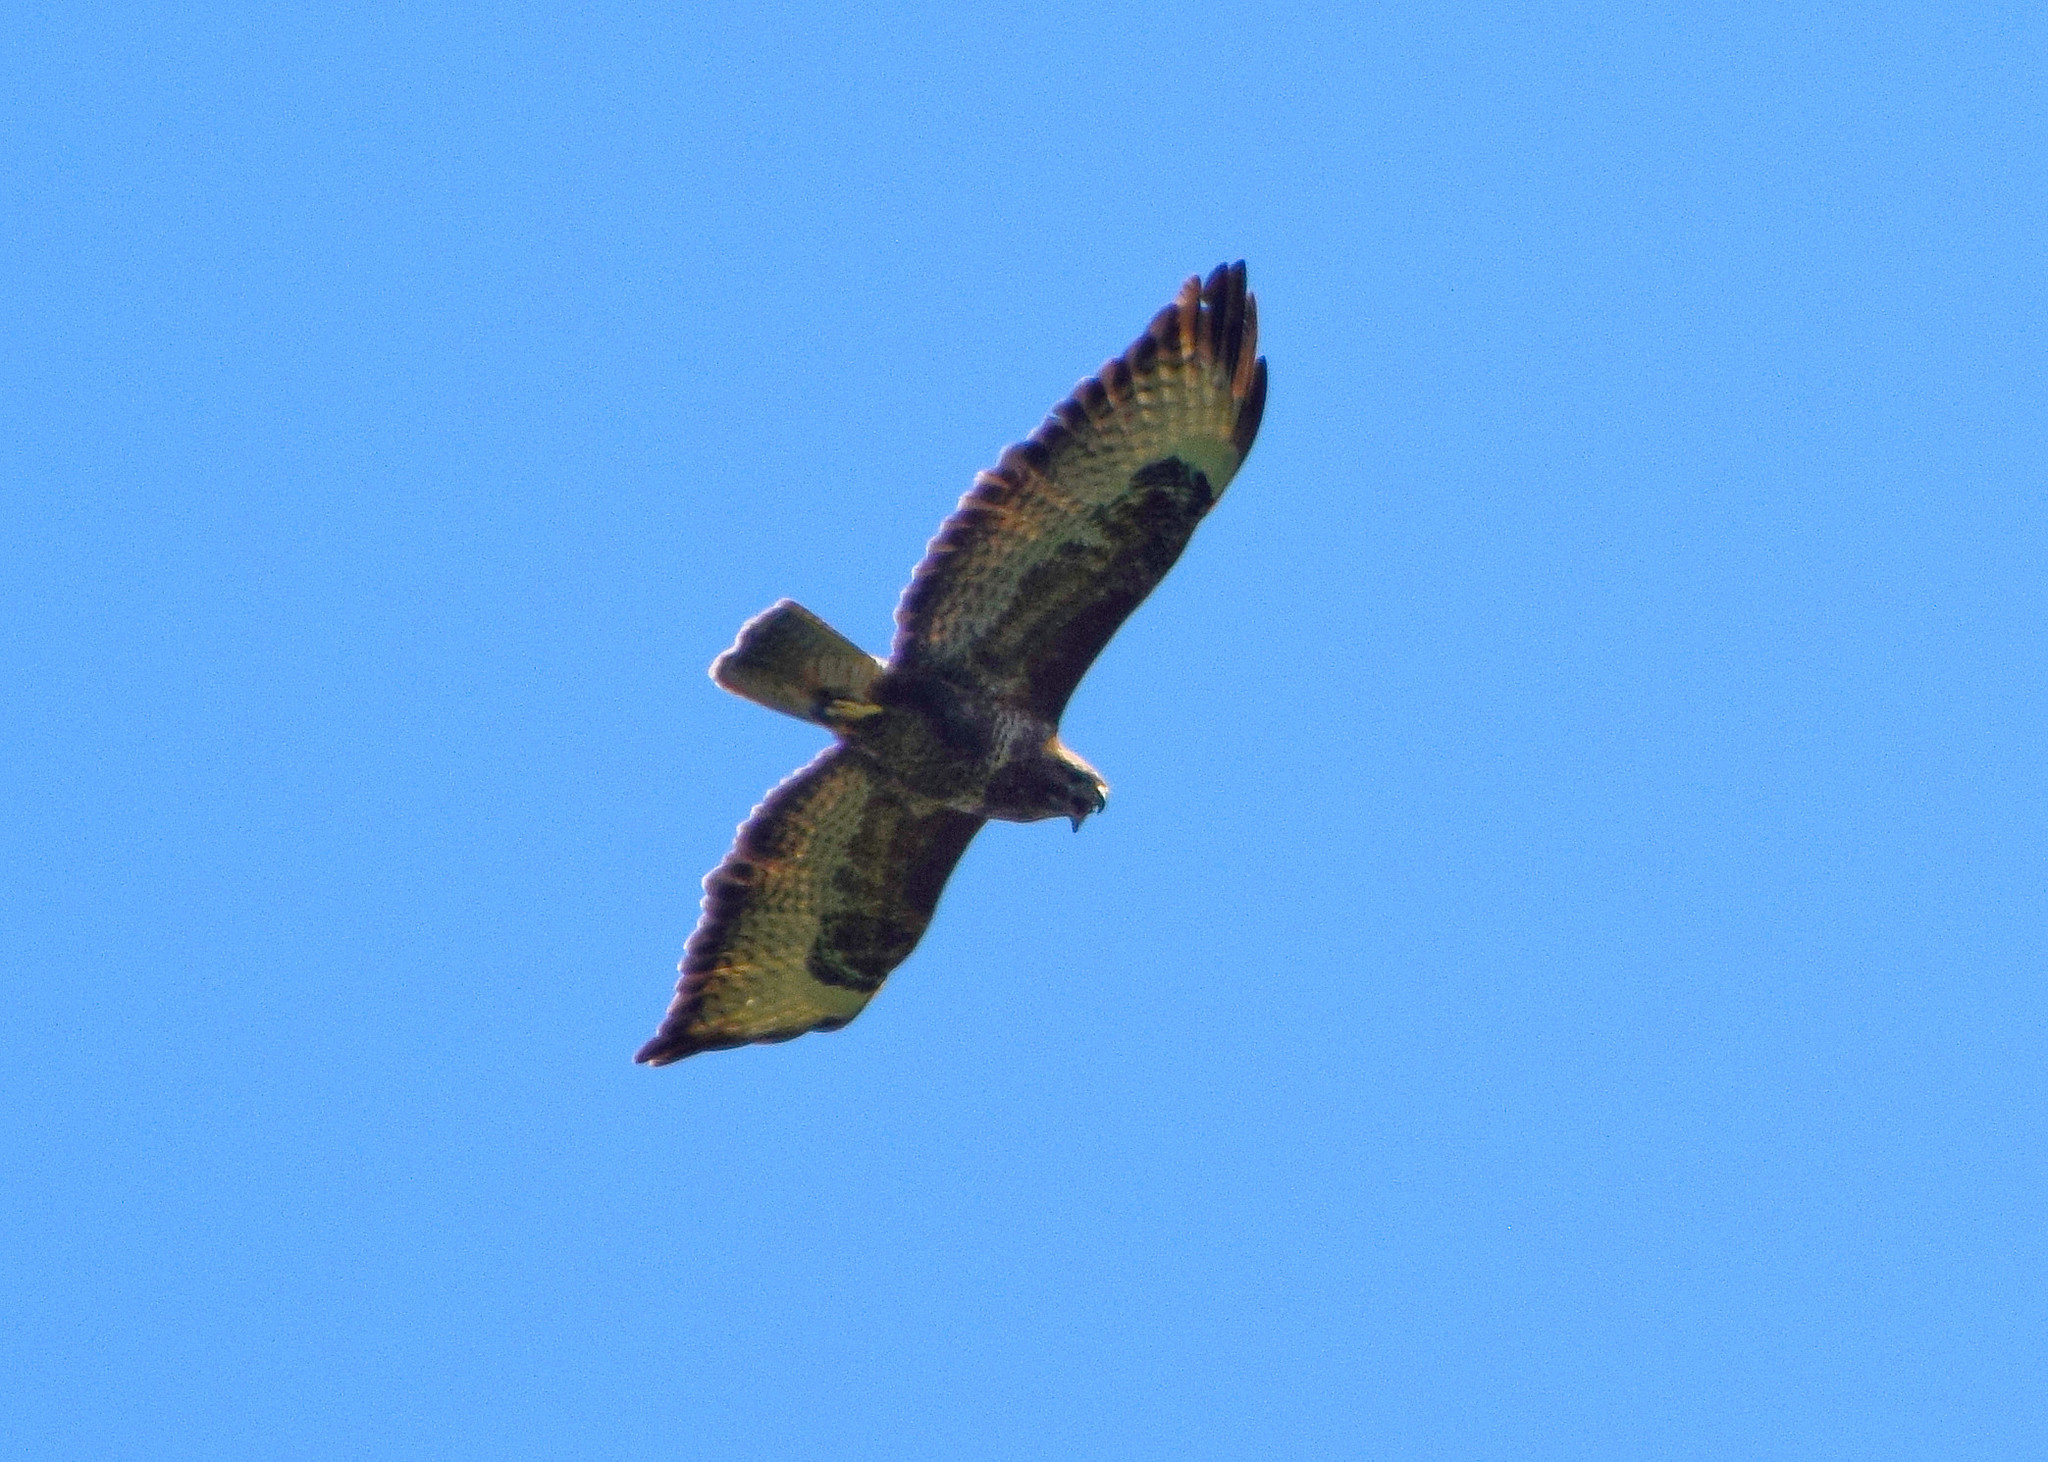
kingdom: Animalia
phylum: Chordata
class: Aves
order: Accipitriformes
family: Accipitridae
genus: Buteo
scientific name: Buteo buteo
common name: Common buzzard
